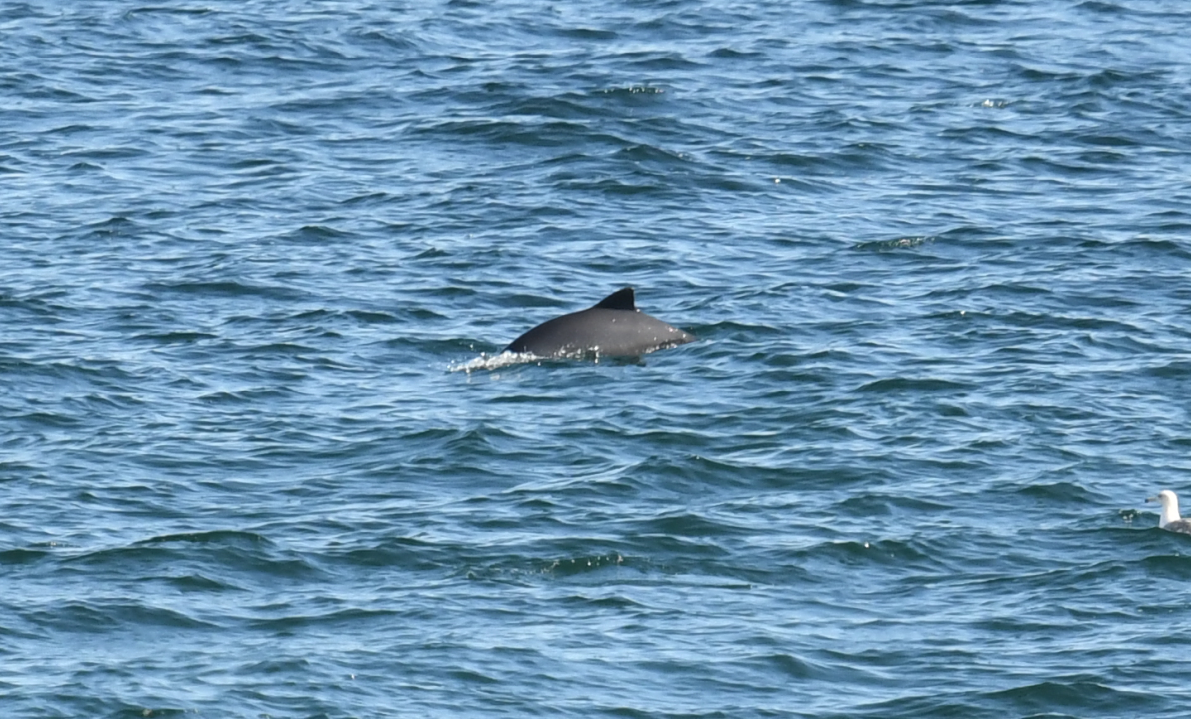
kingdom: Animalia
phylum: Chordata
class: Mammalia
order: Cetacea
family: Phocoenidae
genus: Phocoena
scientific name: Phocoena phocoena
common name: Harbor porpoise
